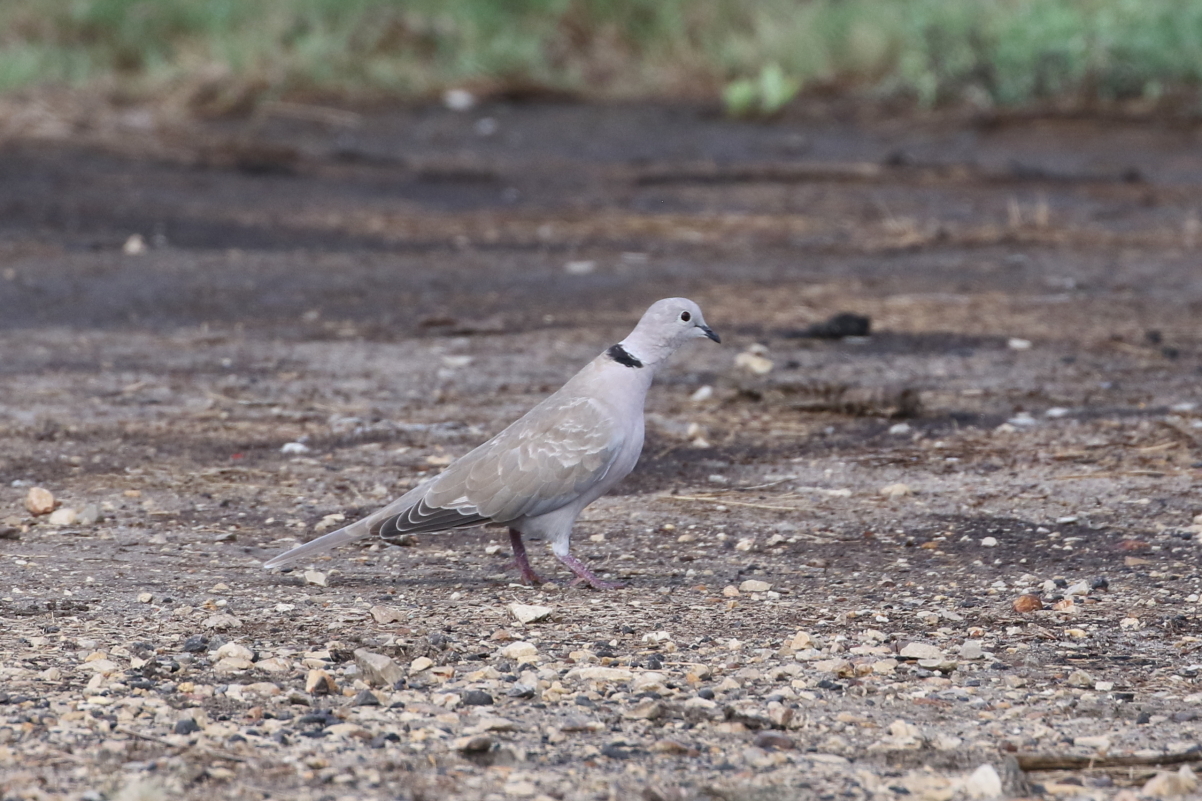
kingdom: Animalia
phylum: Chordata
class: Aves
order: Columbiformes
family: Columbidae
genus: Streptopelia
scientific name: Streptopelia decaocto
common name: Eurasian collared dove
